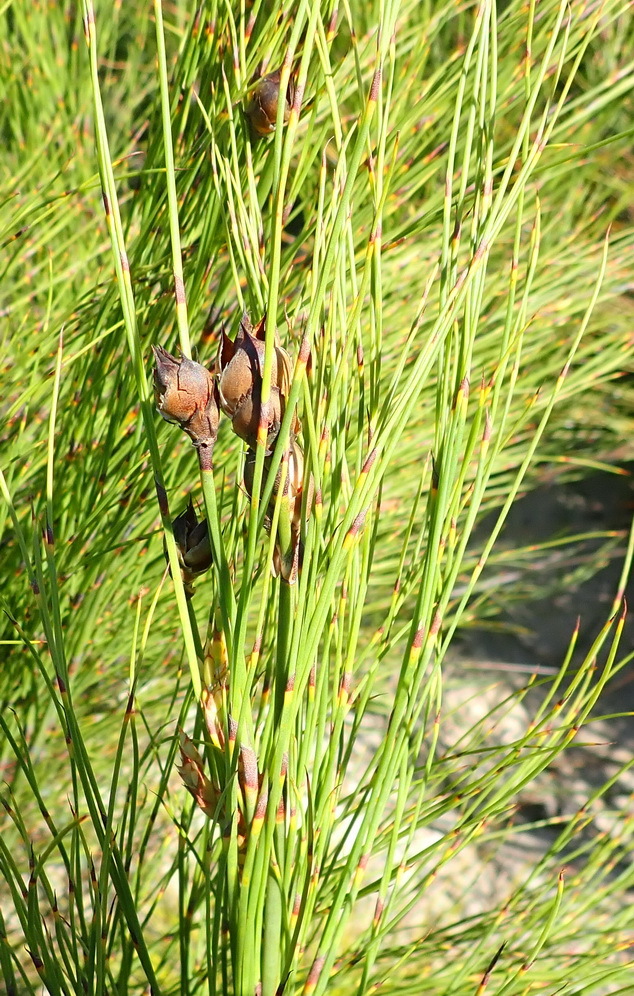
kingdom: Plantae
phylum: Tracheophyta
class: Liliopsida
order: Poales
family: Restionaceae
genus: Cannomois
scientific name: Cannomois virgata
